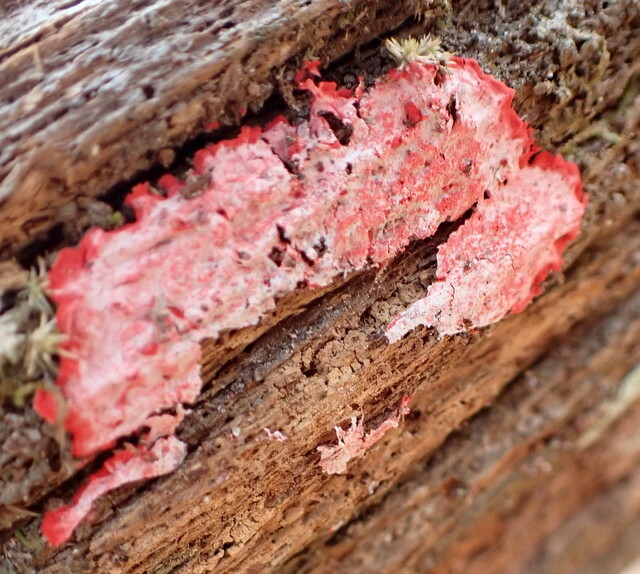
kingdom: Fungi
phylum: Ascomycota
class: Arthoniomycetes
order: Arthoniales
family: Arthoniaceae
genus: Herpothallon
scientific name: Herpothallon rubrocinctum
